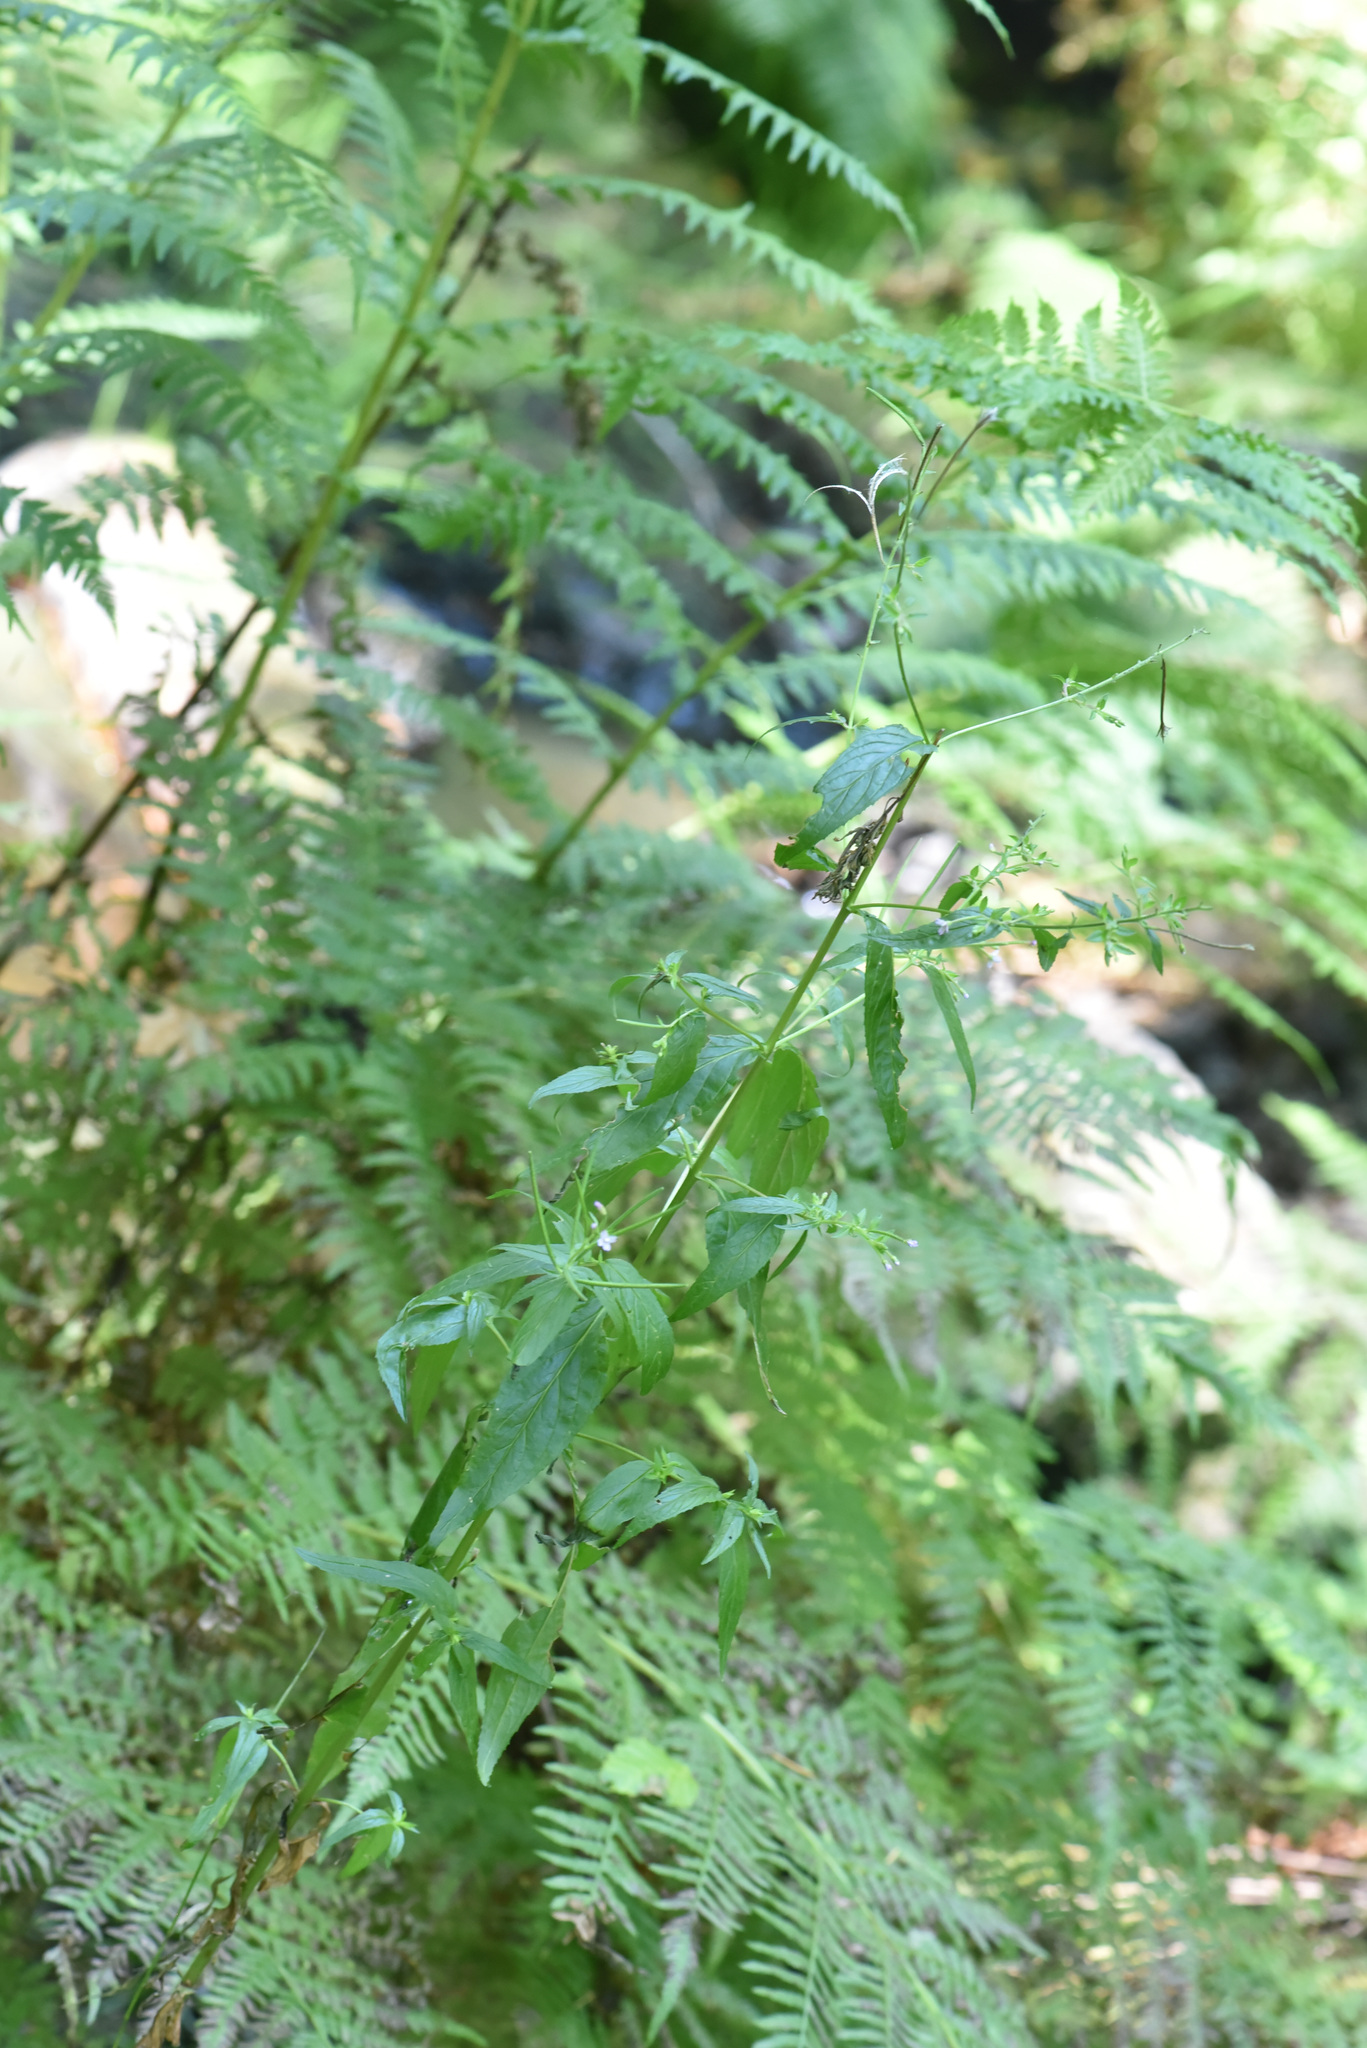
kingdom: Plantae
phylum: Tracheophyta
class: Magnoliopsida
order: Myrtales
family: Onagraceae
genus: Epilobium
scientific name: Epilobium ciliatum
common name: American willowherb
